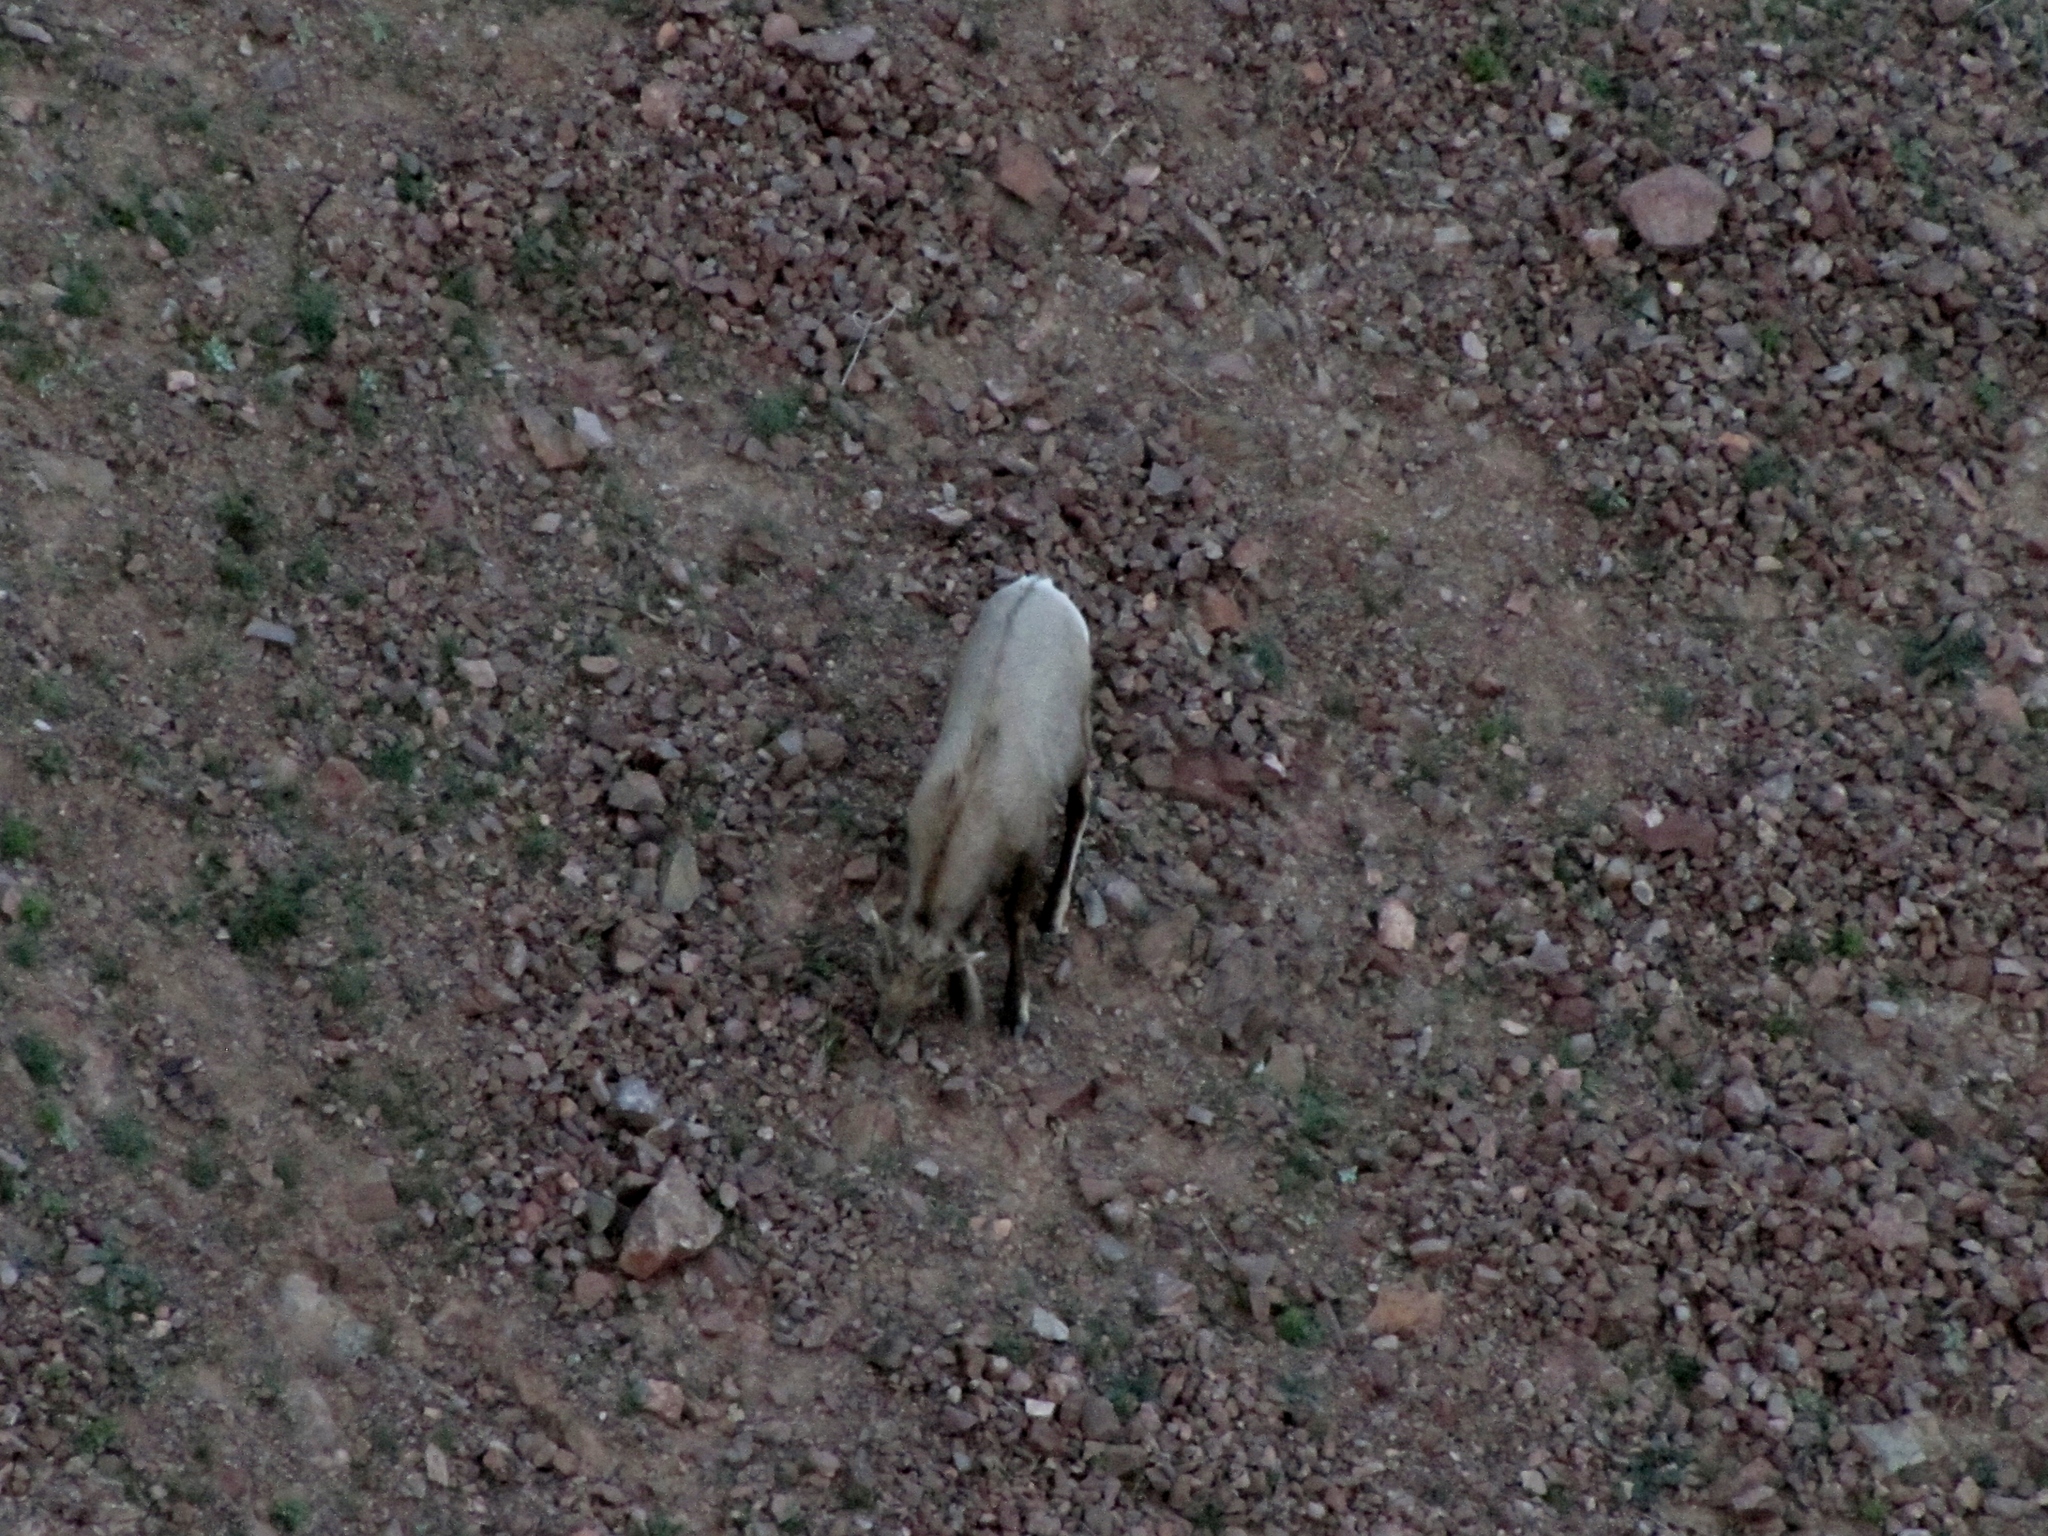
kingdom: Animalia
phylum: Chordata
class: Mammalia
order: Artiodactyla
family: Bovidae
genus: Ovis
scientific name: Ovis canadensis
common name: Bighorn sheep
